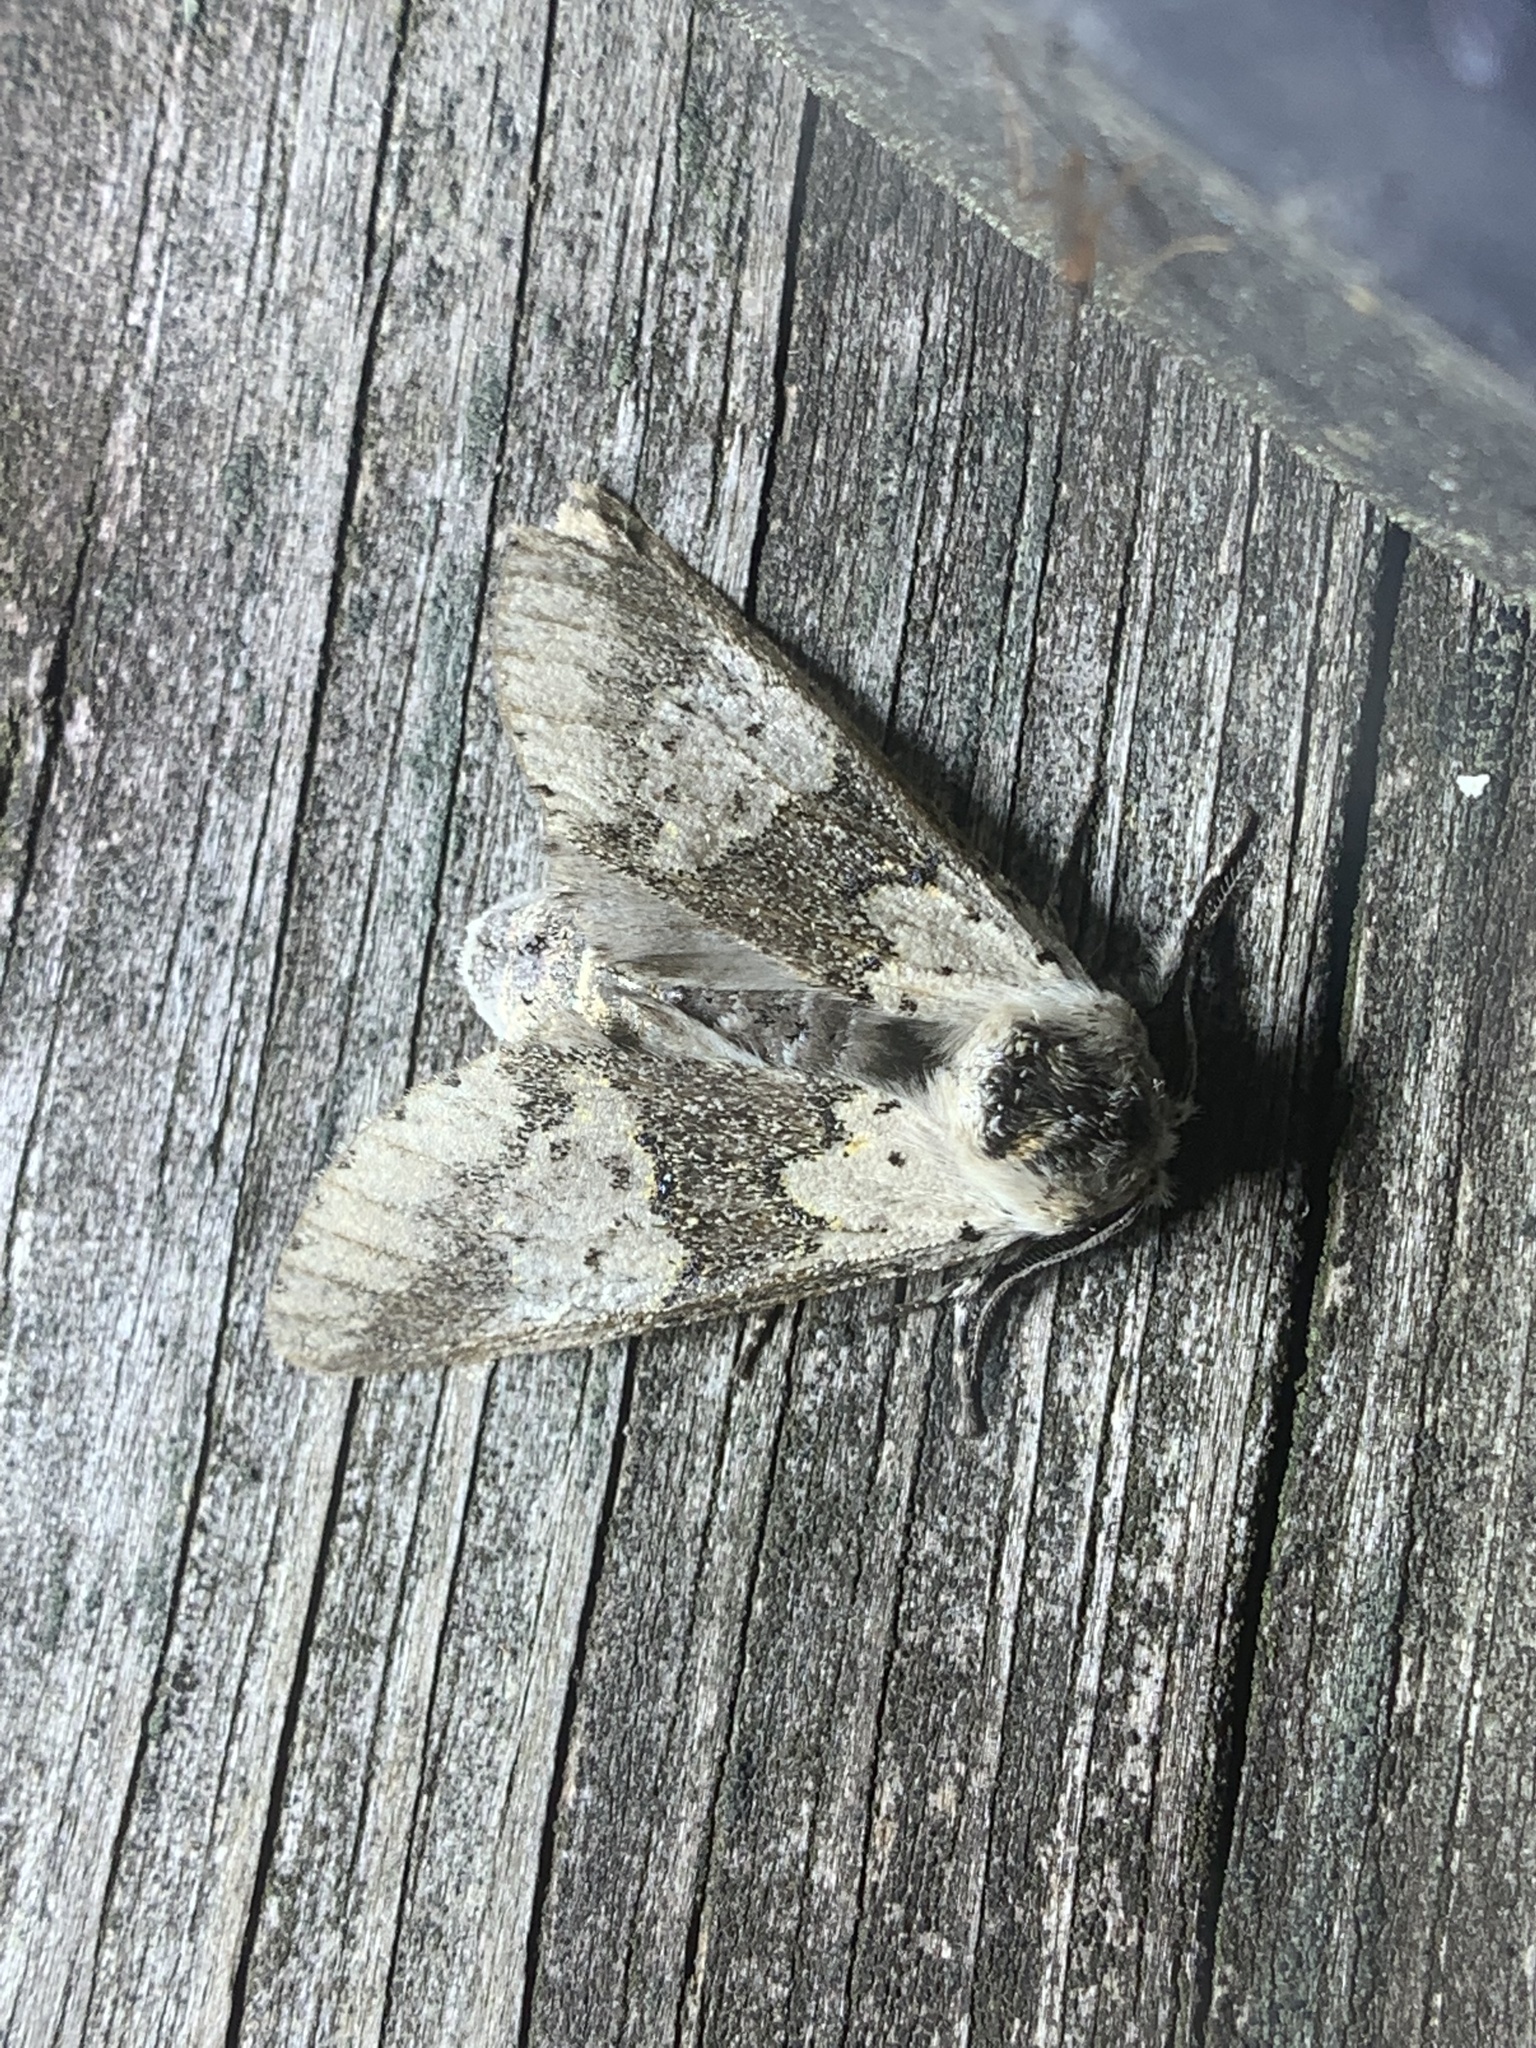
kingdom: Animalia
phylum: Arthropoda
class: Insecta
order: Lepidoptera
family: Notodontidae
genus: Furcula
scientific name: Furcula borealis
